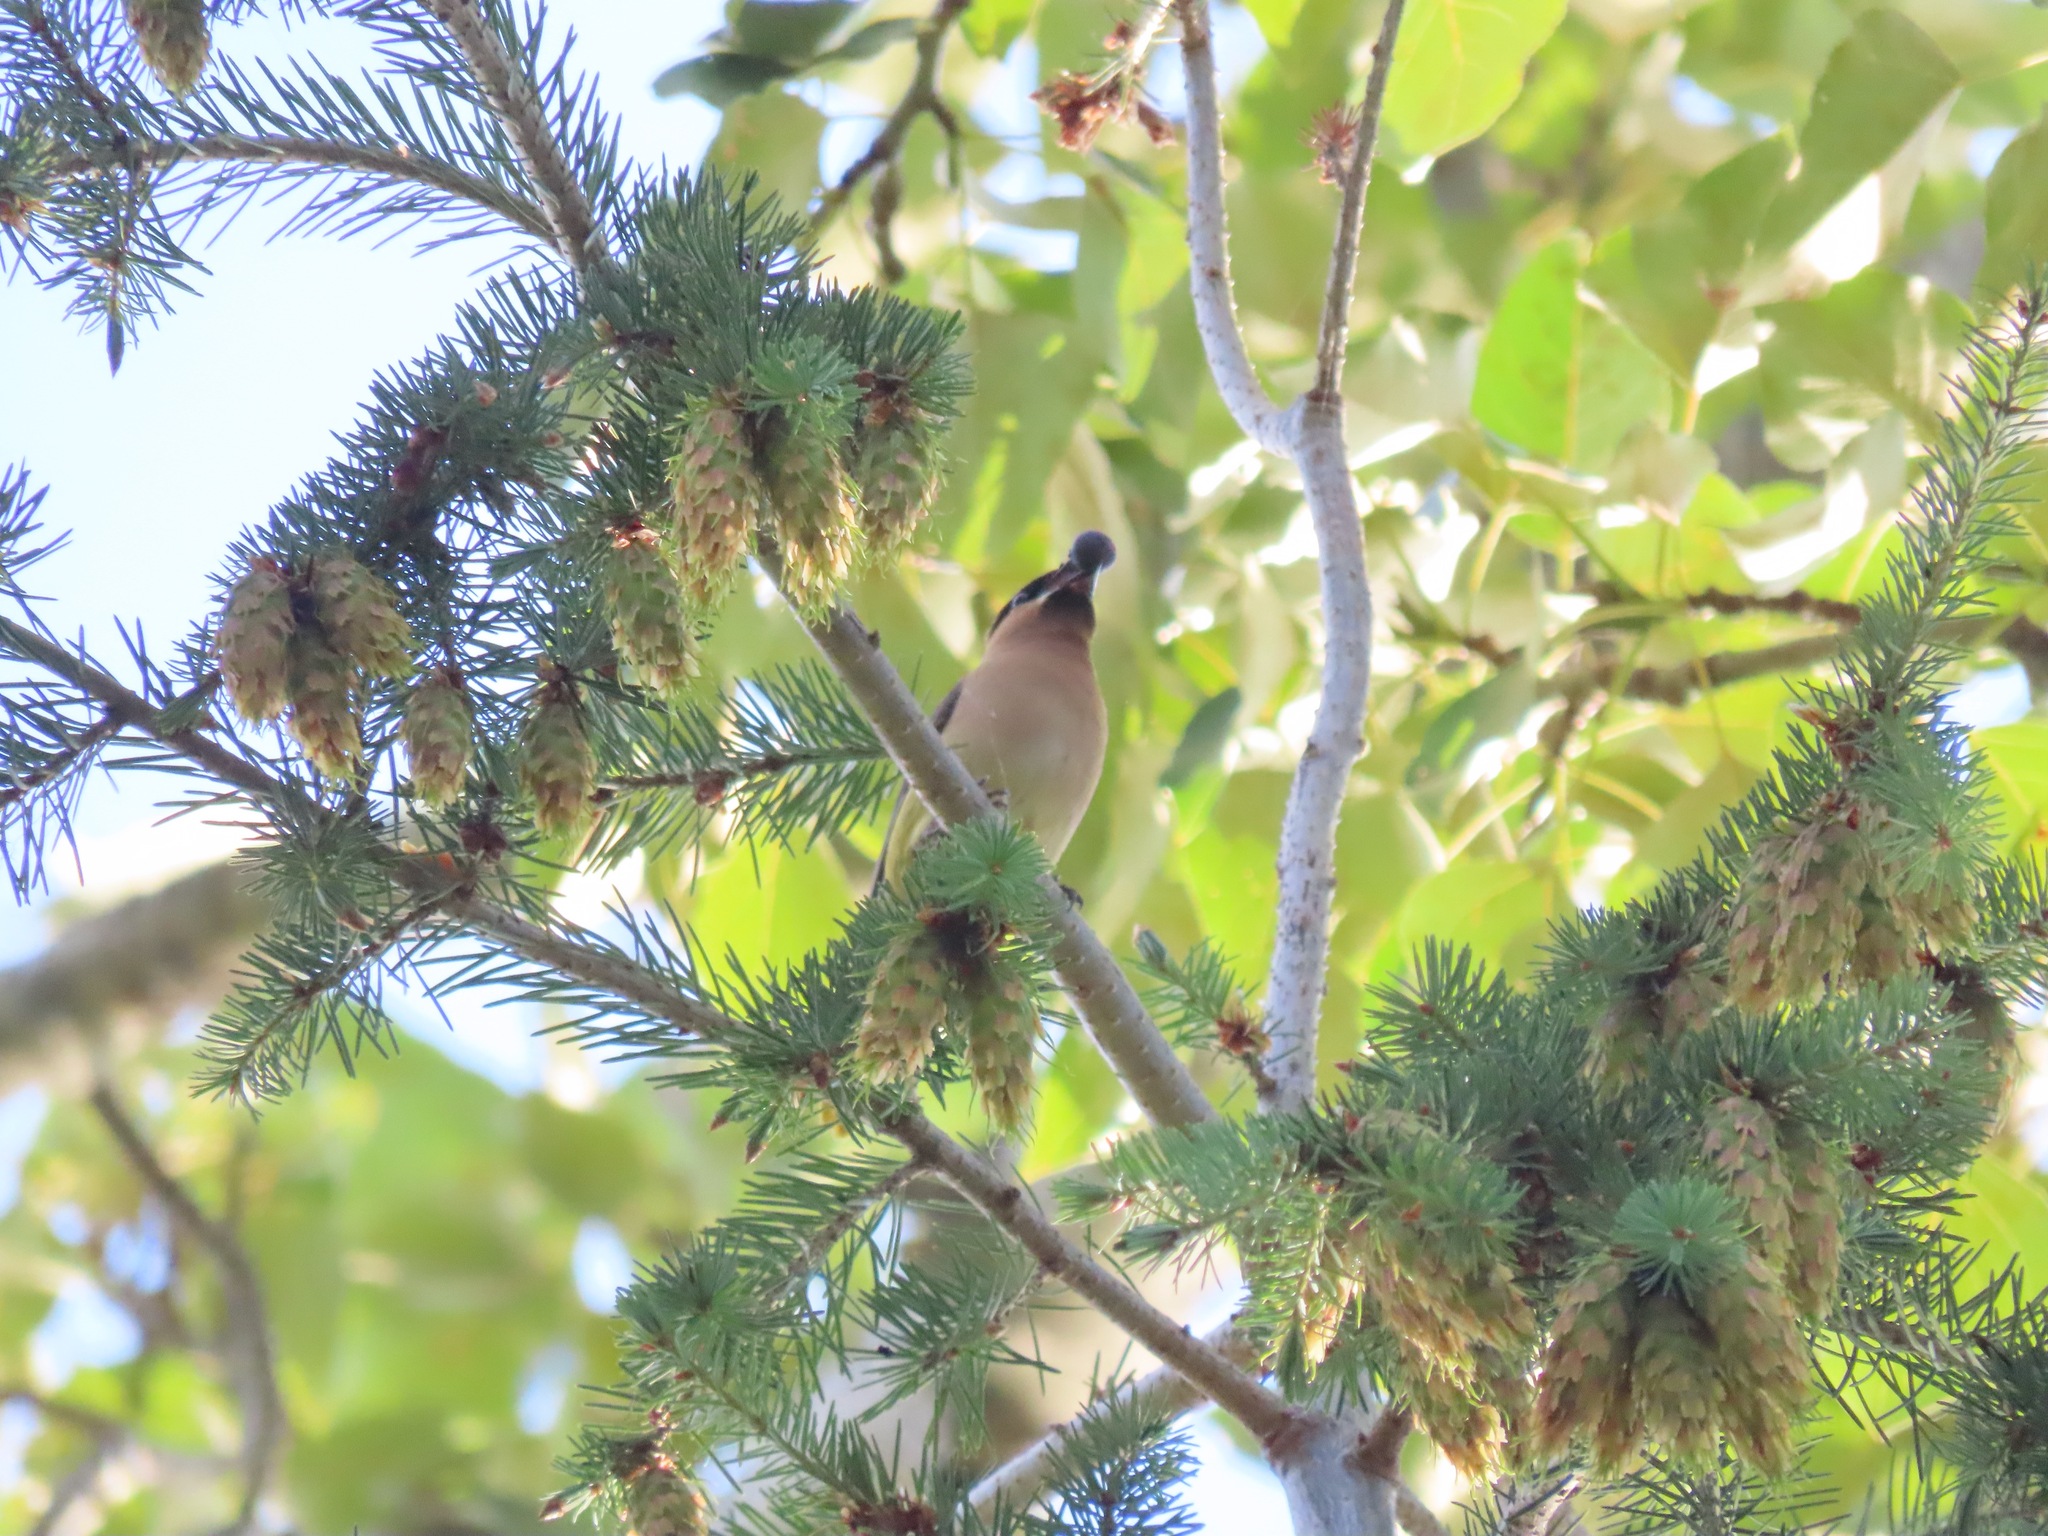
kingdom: Animalia
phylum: Chordata
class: Aves
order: Passeriformes
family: Bombycillidae
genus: Bombycilla
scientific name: Bombycilla cedrorum
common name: Cedar waxwing
